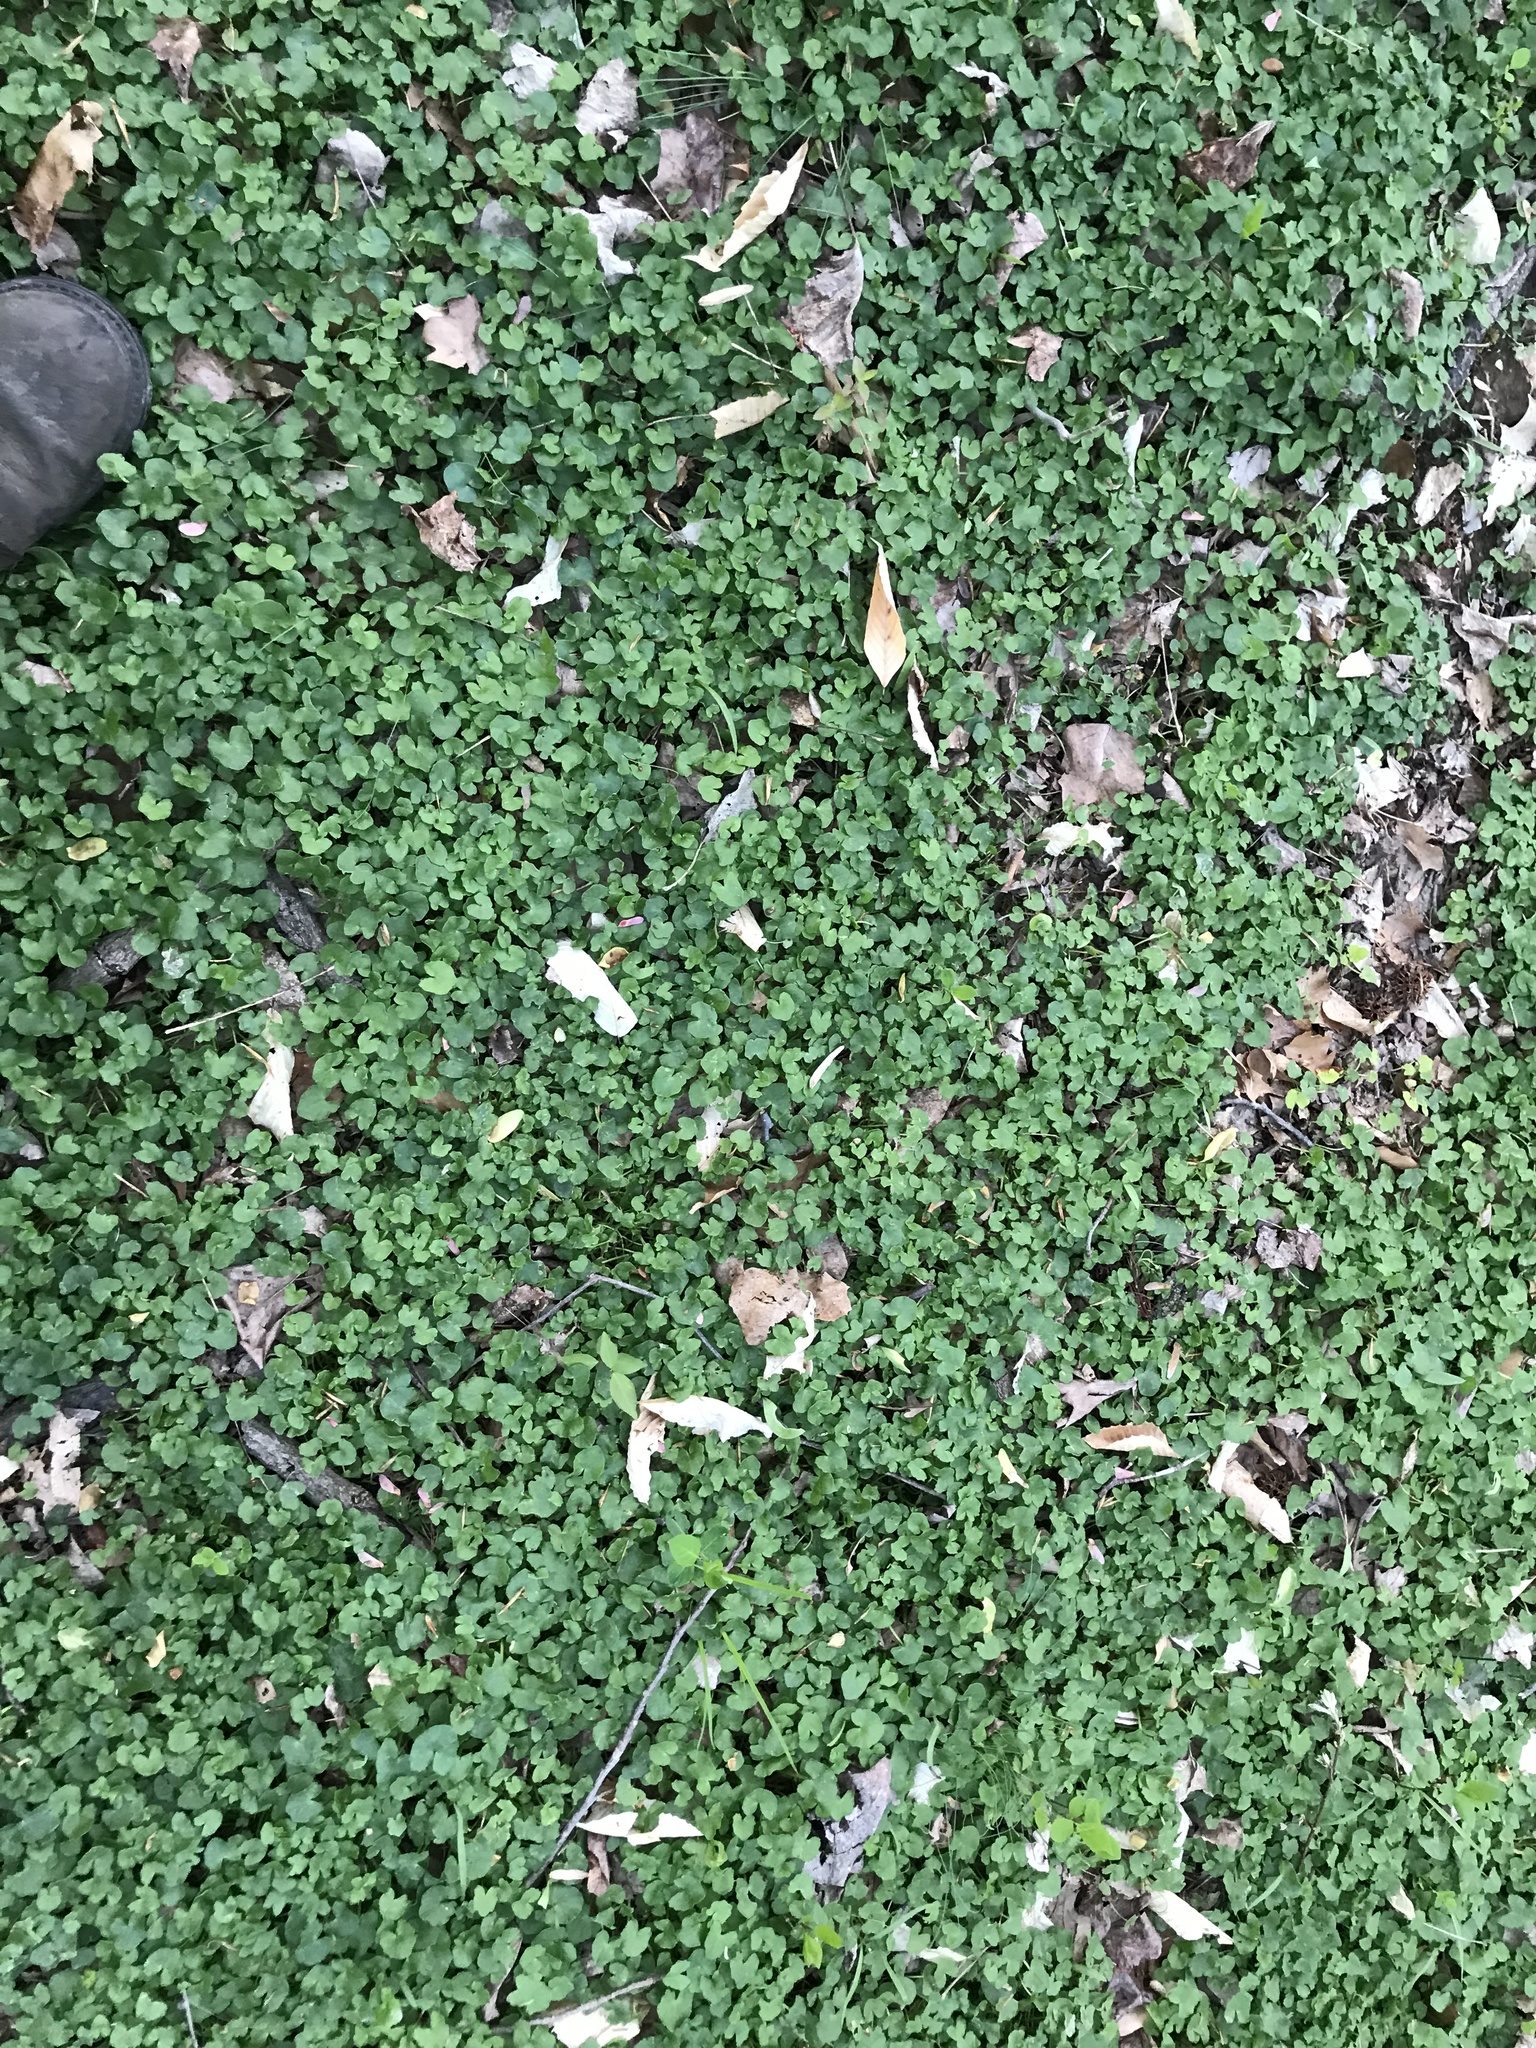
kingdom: Plantae
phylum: Tracheophyta
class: Magnoliopsida
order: Ranunculales
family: Ranunculaceae
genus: Ficaria
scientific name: Ficaria verna
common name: Lesser celandine
